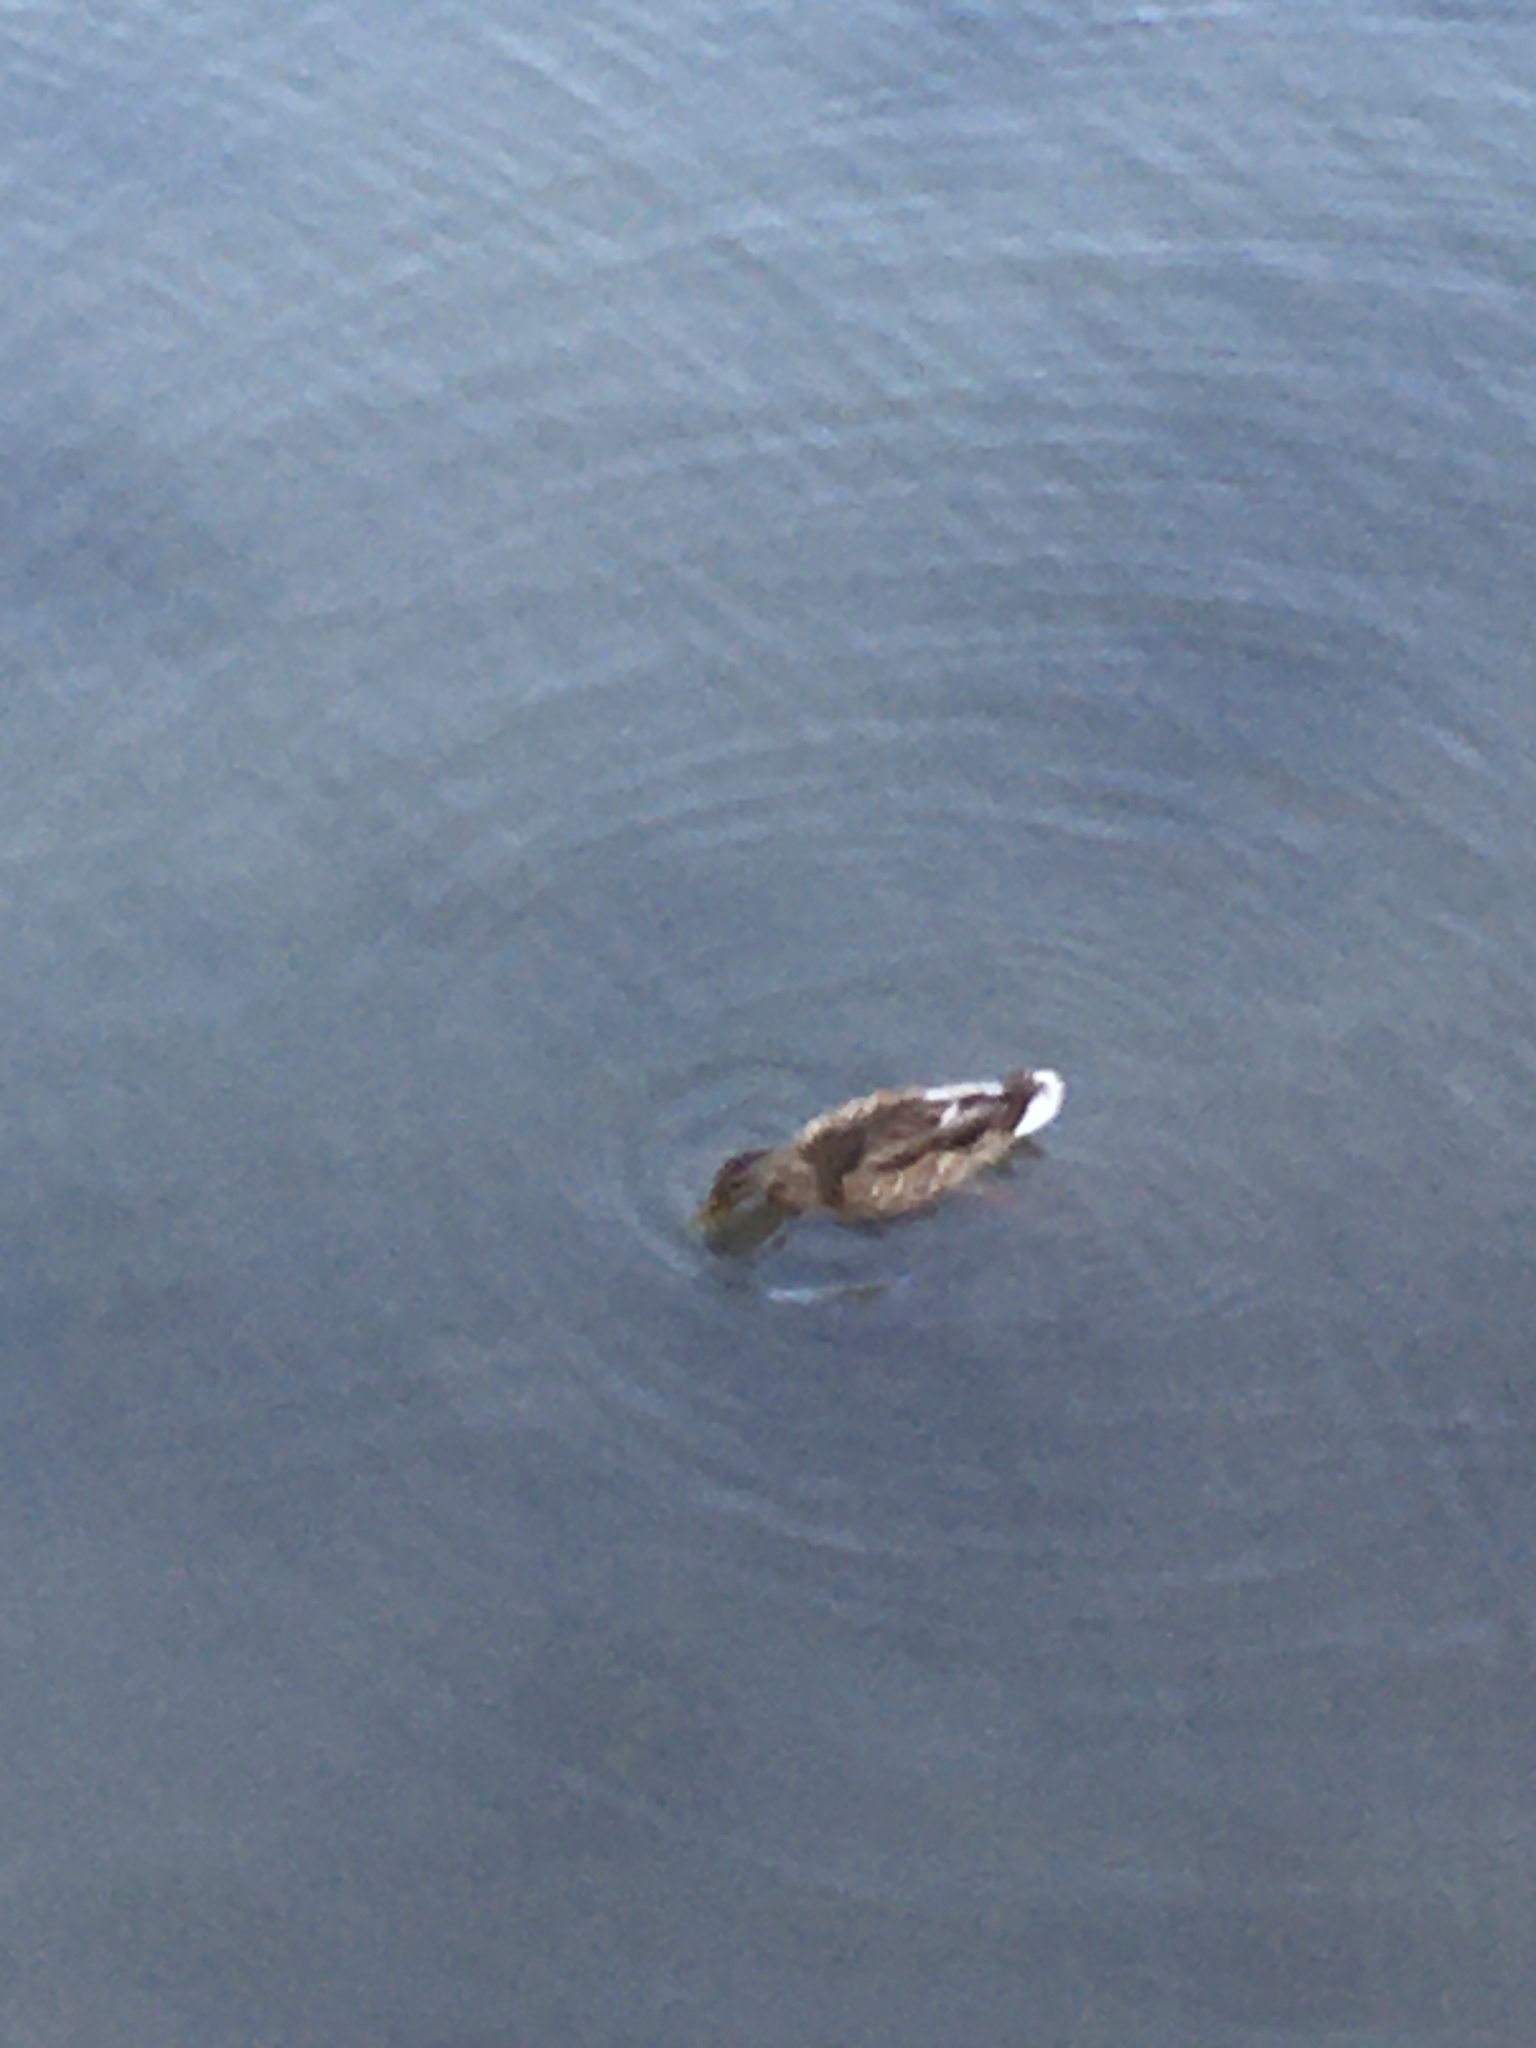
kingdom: Animalia
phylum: Chordata
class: Aves
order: Anseriformes
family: Anatidae
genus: Anas
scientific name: Anas platyrhynchos
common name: Mallard
